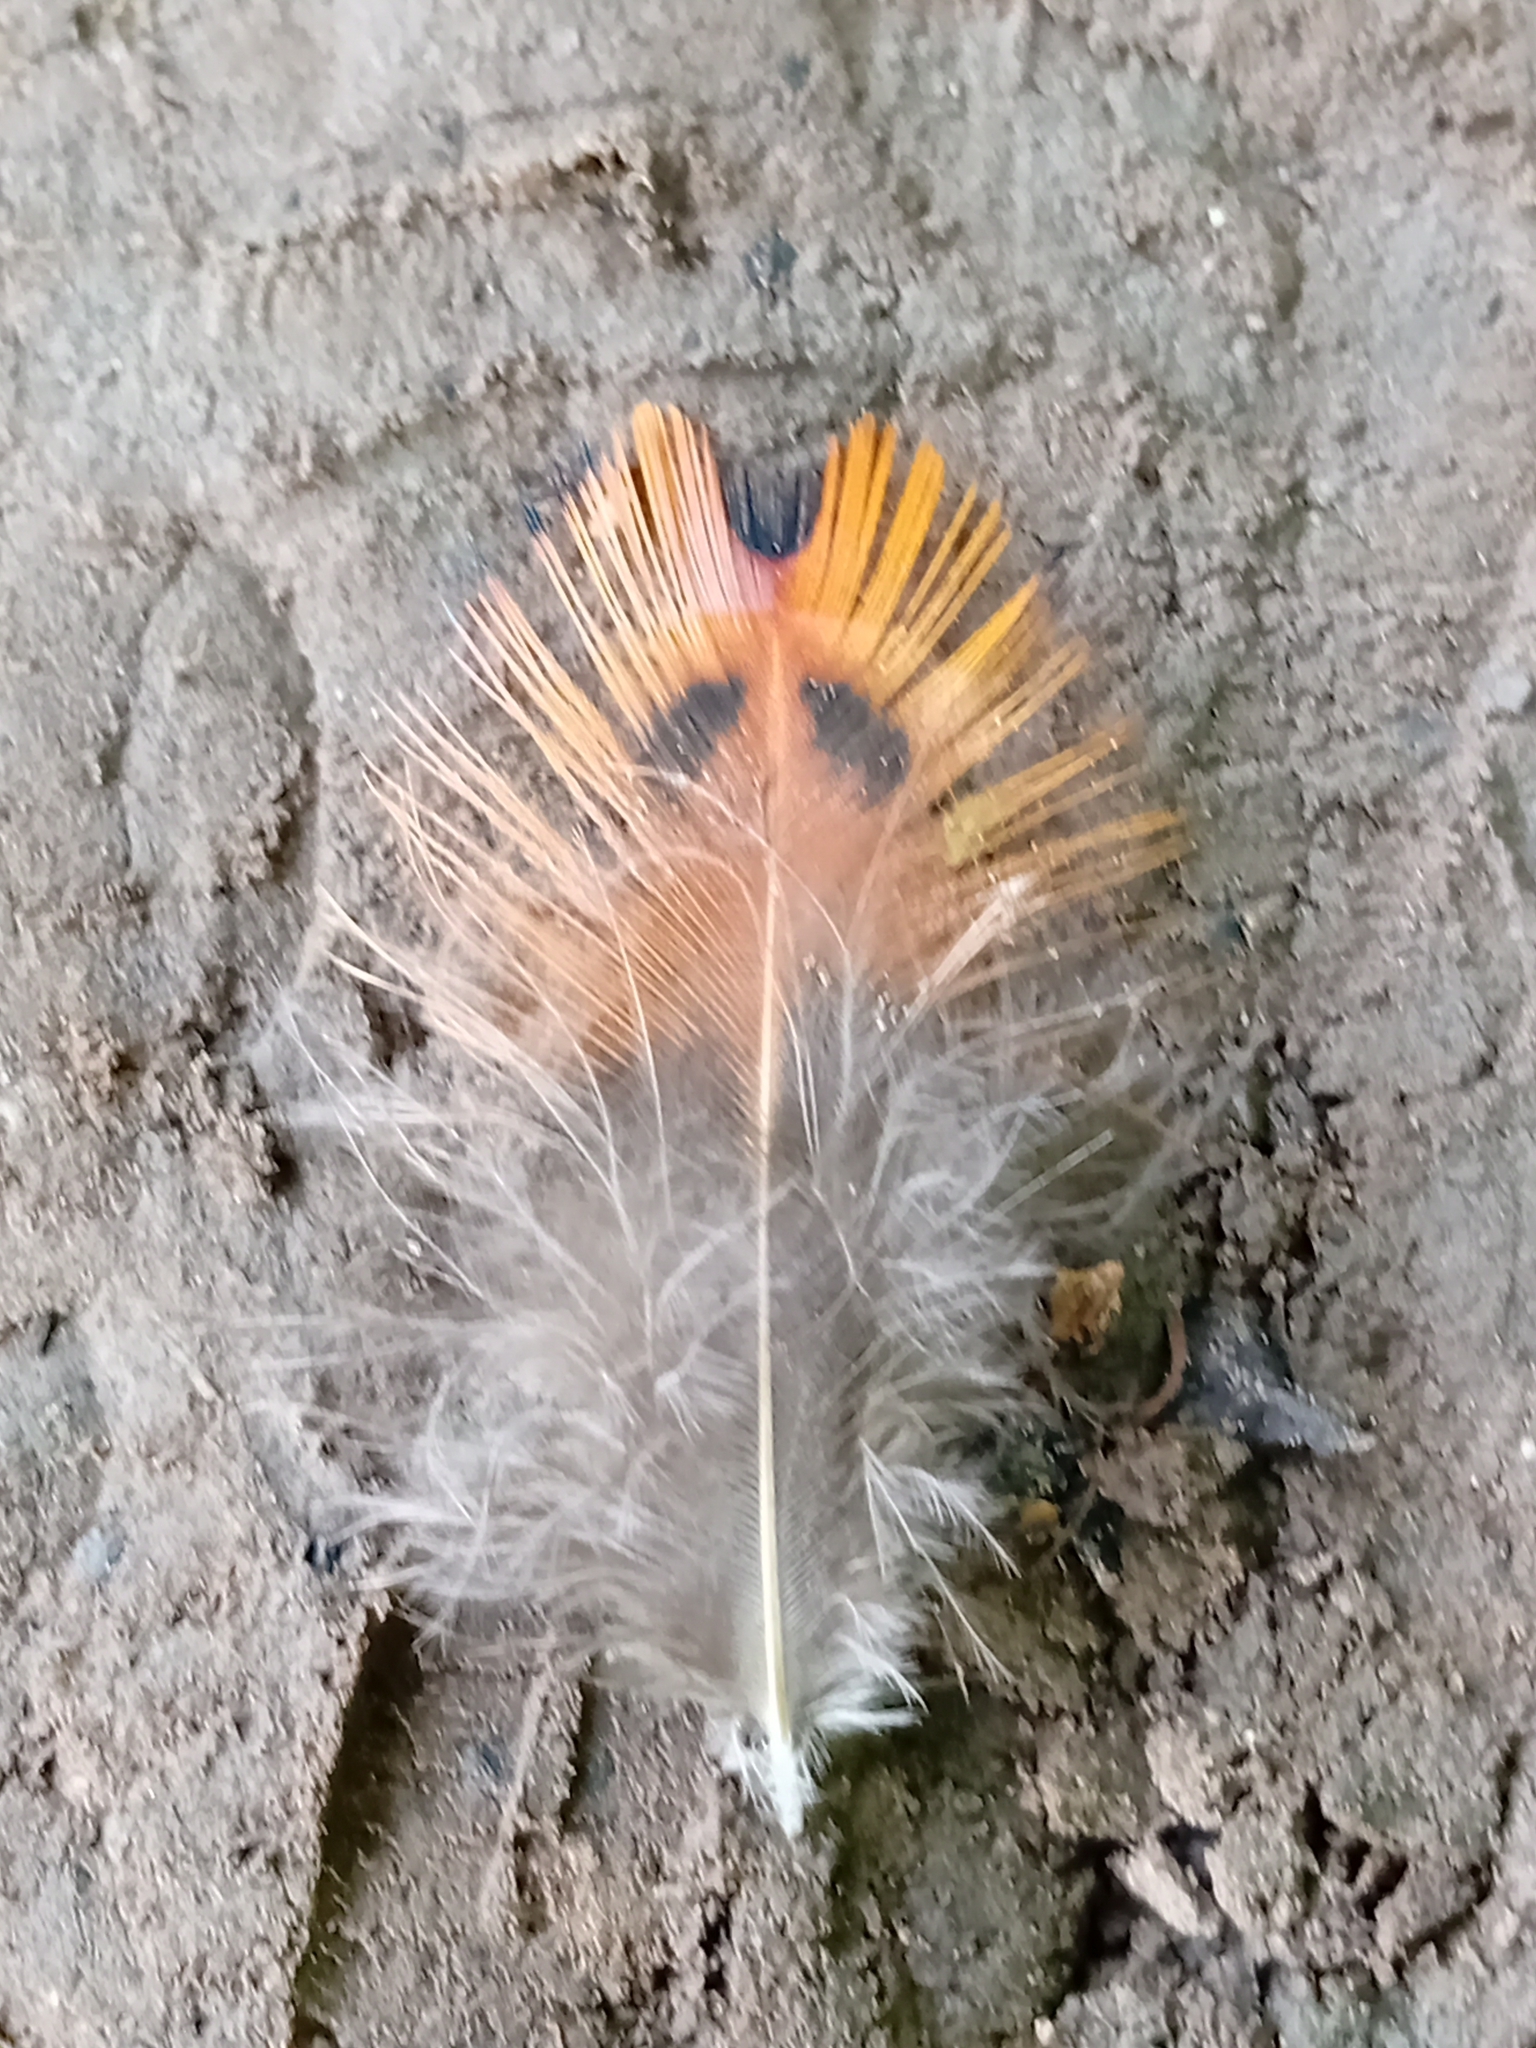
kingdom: Animalia
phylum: Chordata
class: Aves
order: Galliformes
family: Phasianidae
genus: Phasianus
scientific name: Phasianus colchicus
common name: Common pheasant
